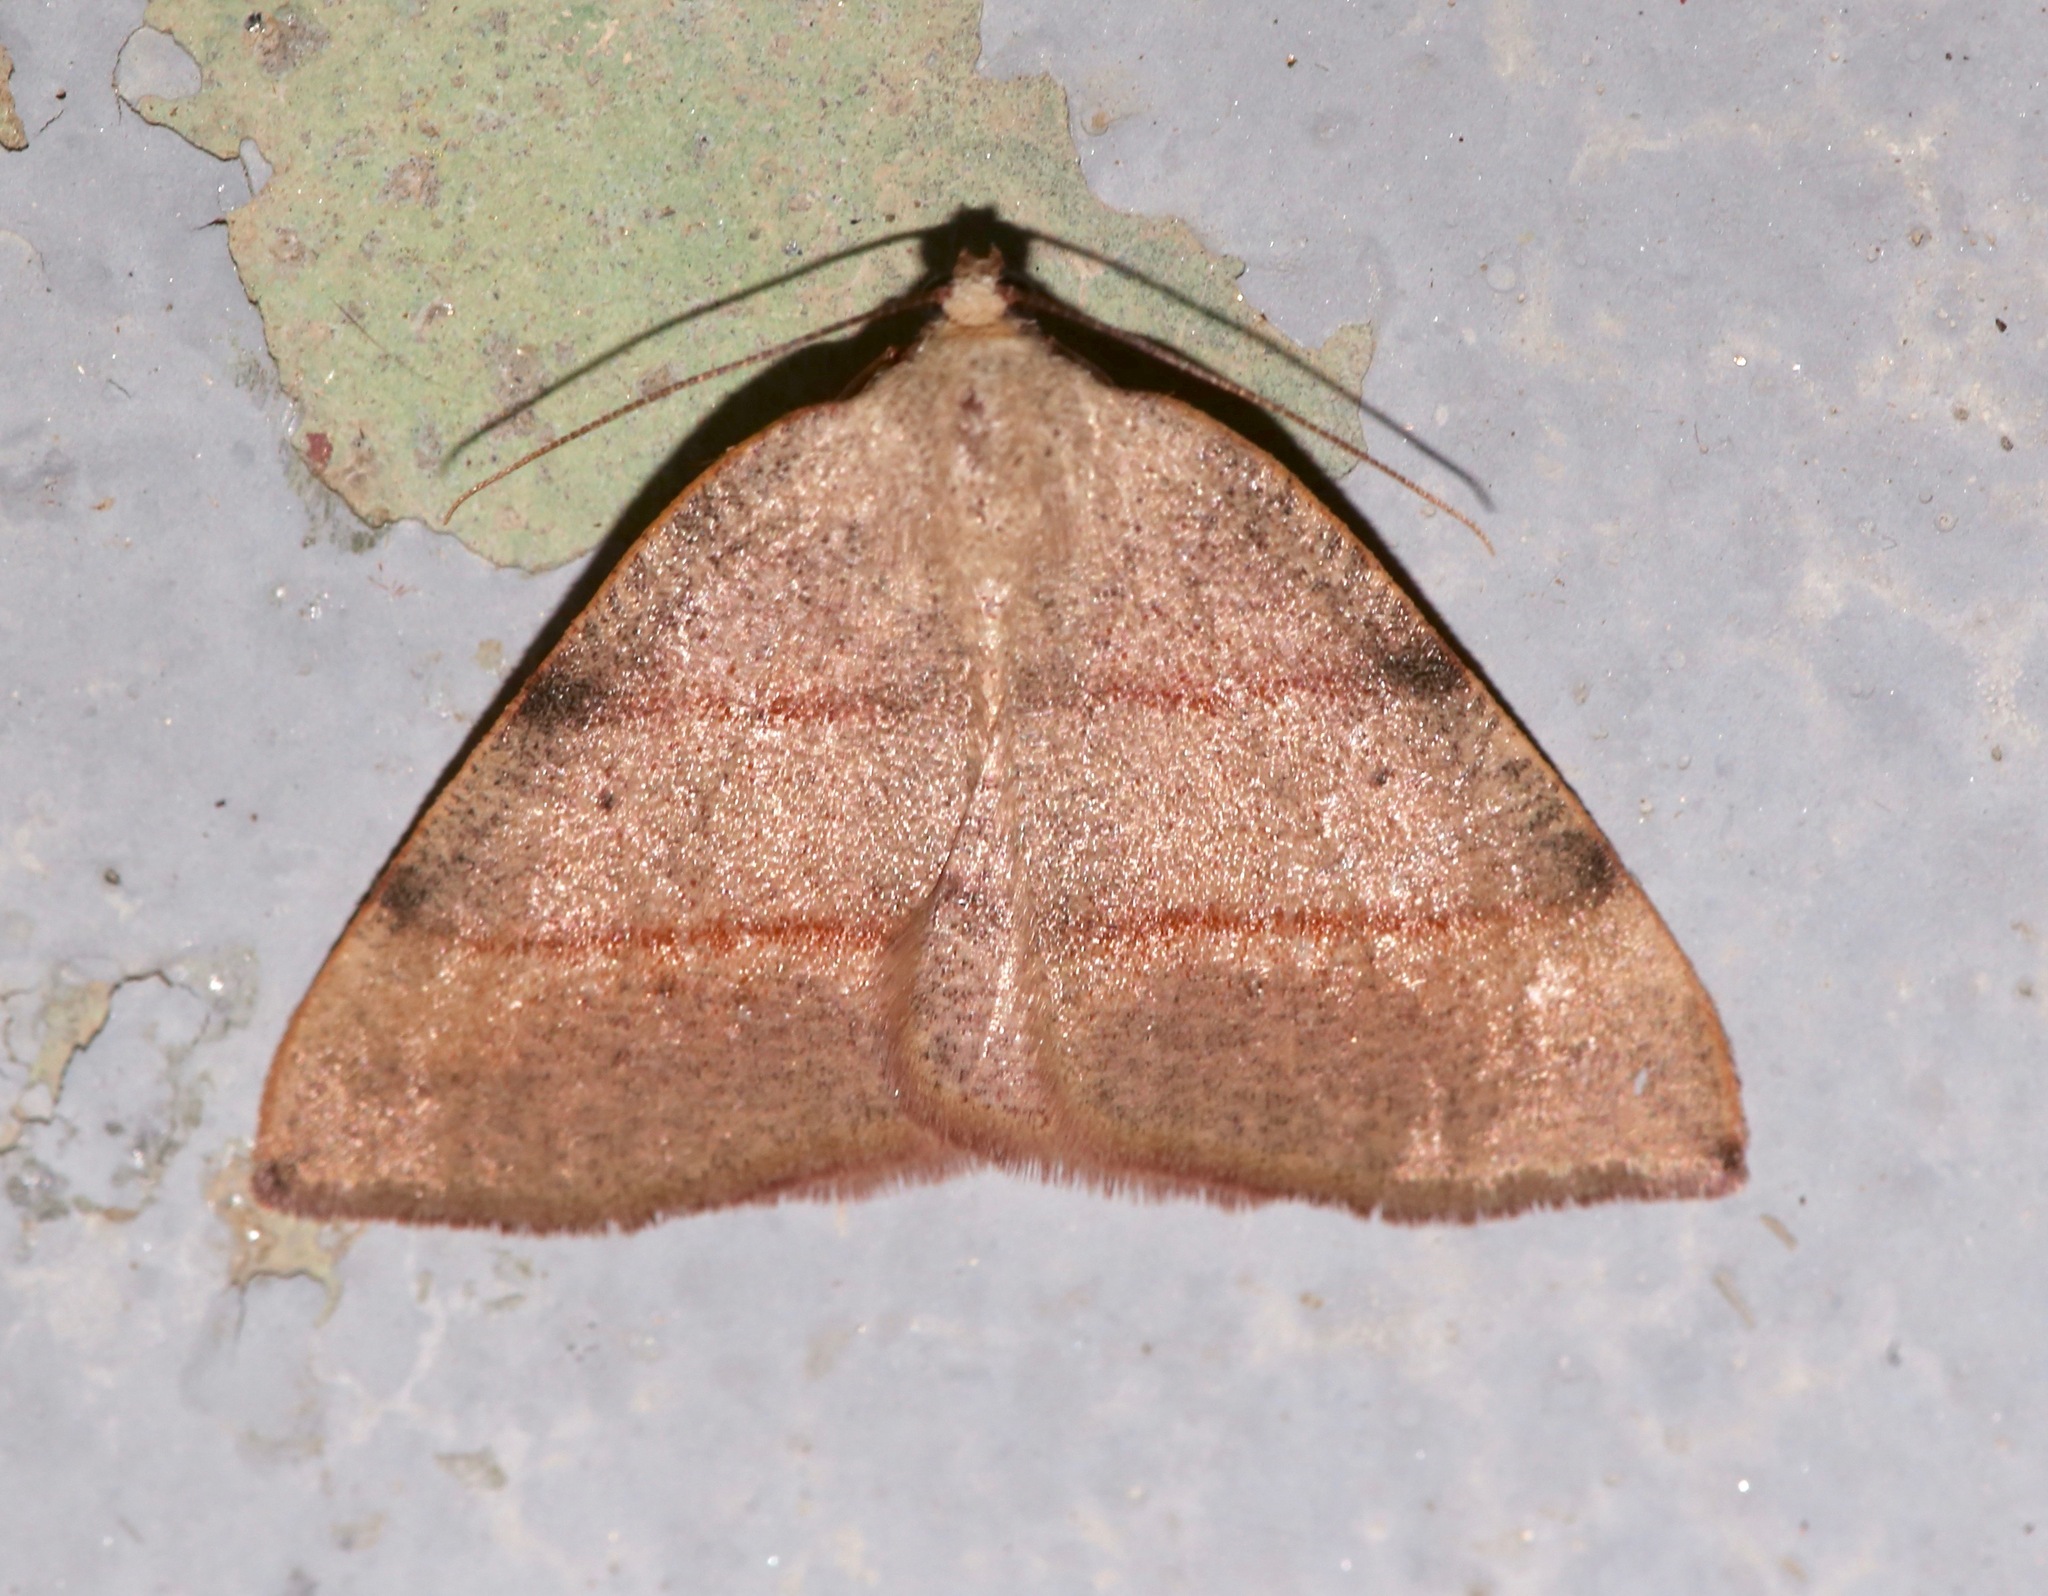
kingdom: Animalia
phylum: Arthropoda
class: Insecta
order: Lepidoptera
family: Geometridae
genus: Drepanulatrix
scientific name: Drepanulatrix bifilata
